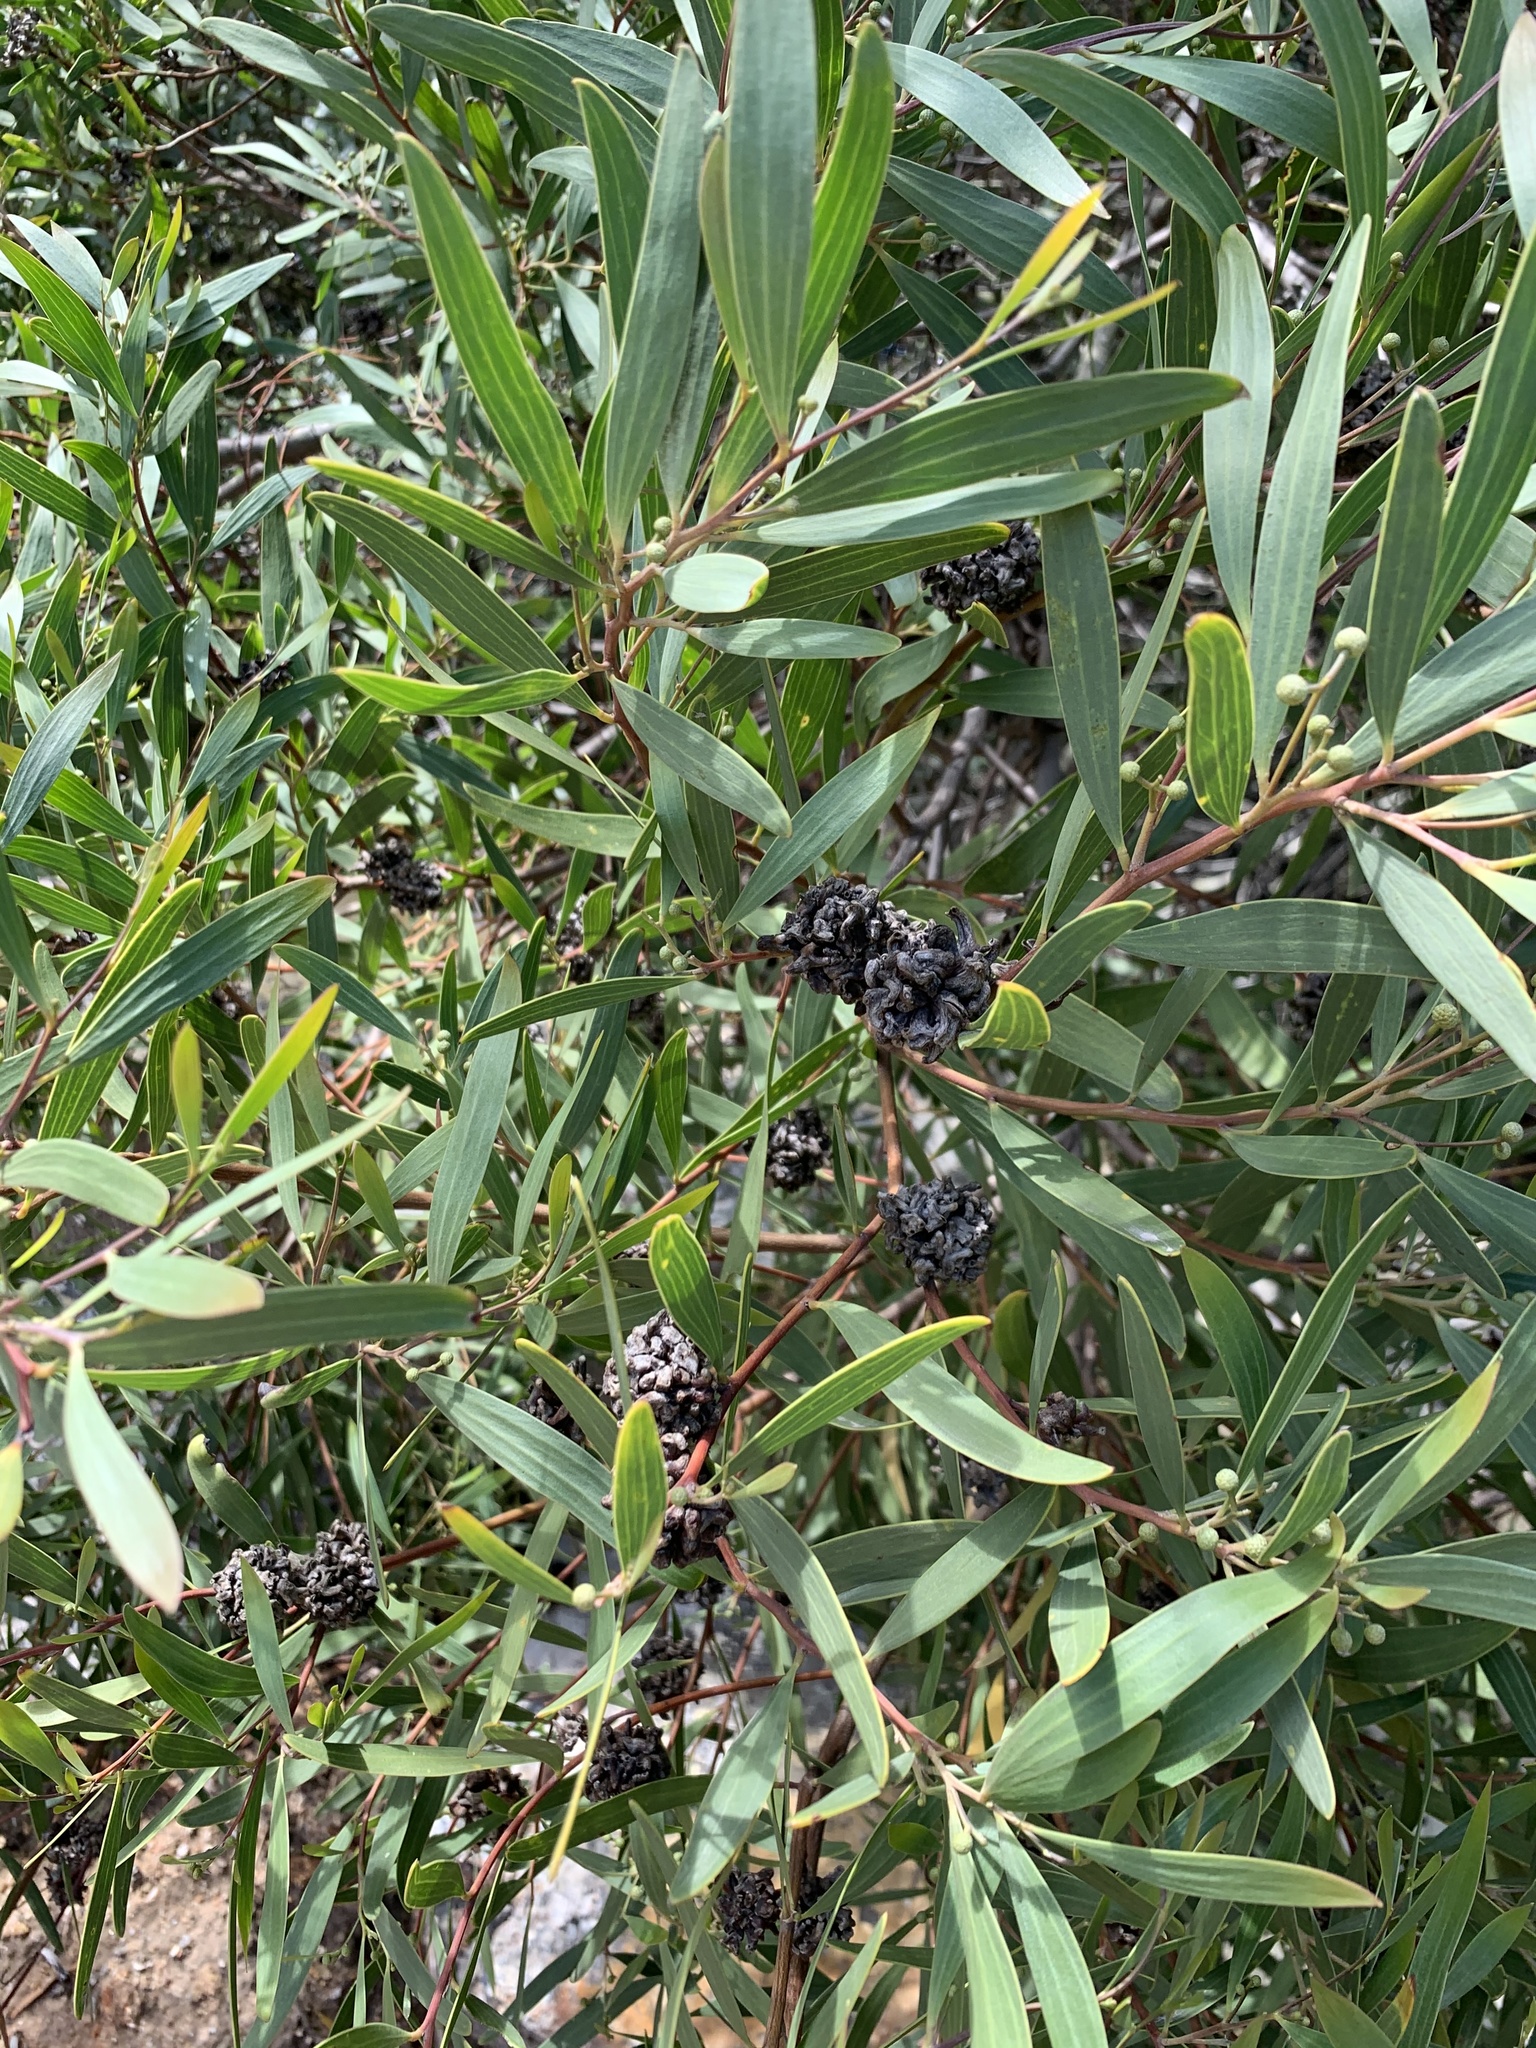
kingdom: Plantae
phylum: Tracheophyta
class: Magnoliopsida
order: Fabales
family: Fabaceae
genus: Acacia
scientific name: Acacia cyclops
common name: Coastal wattle
